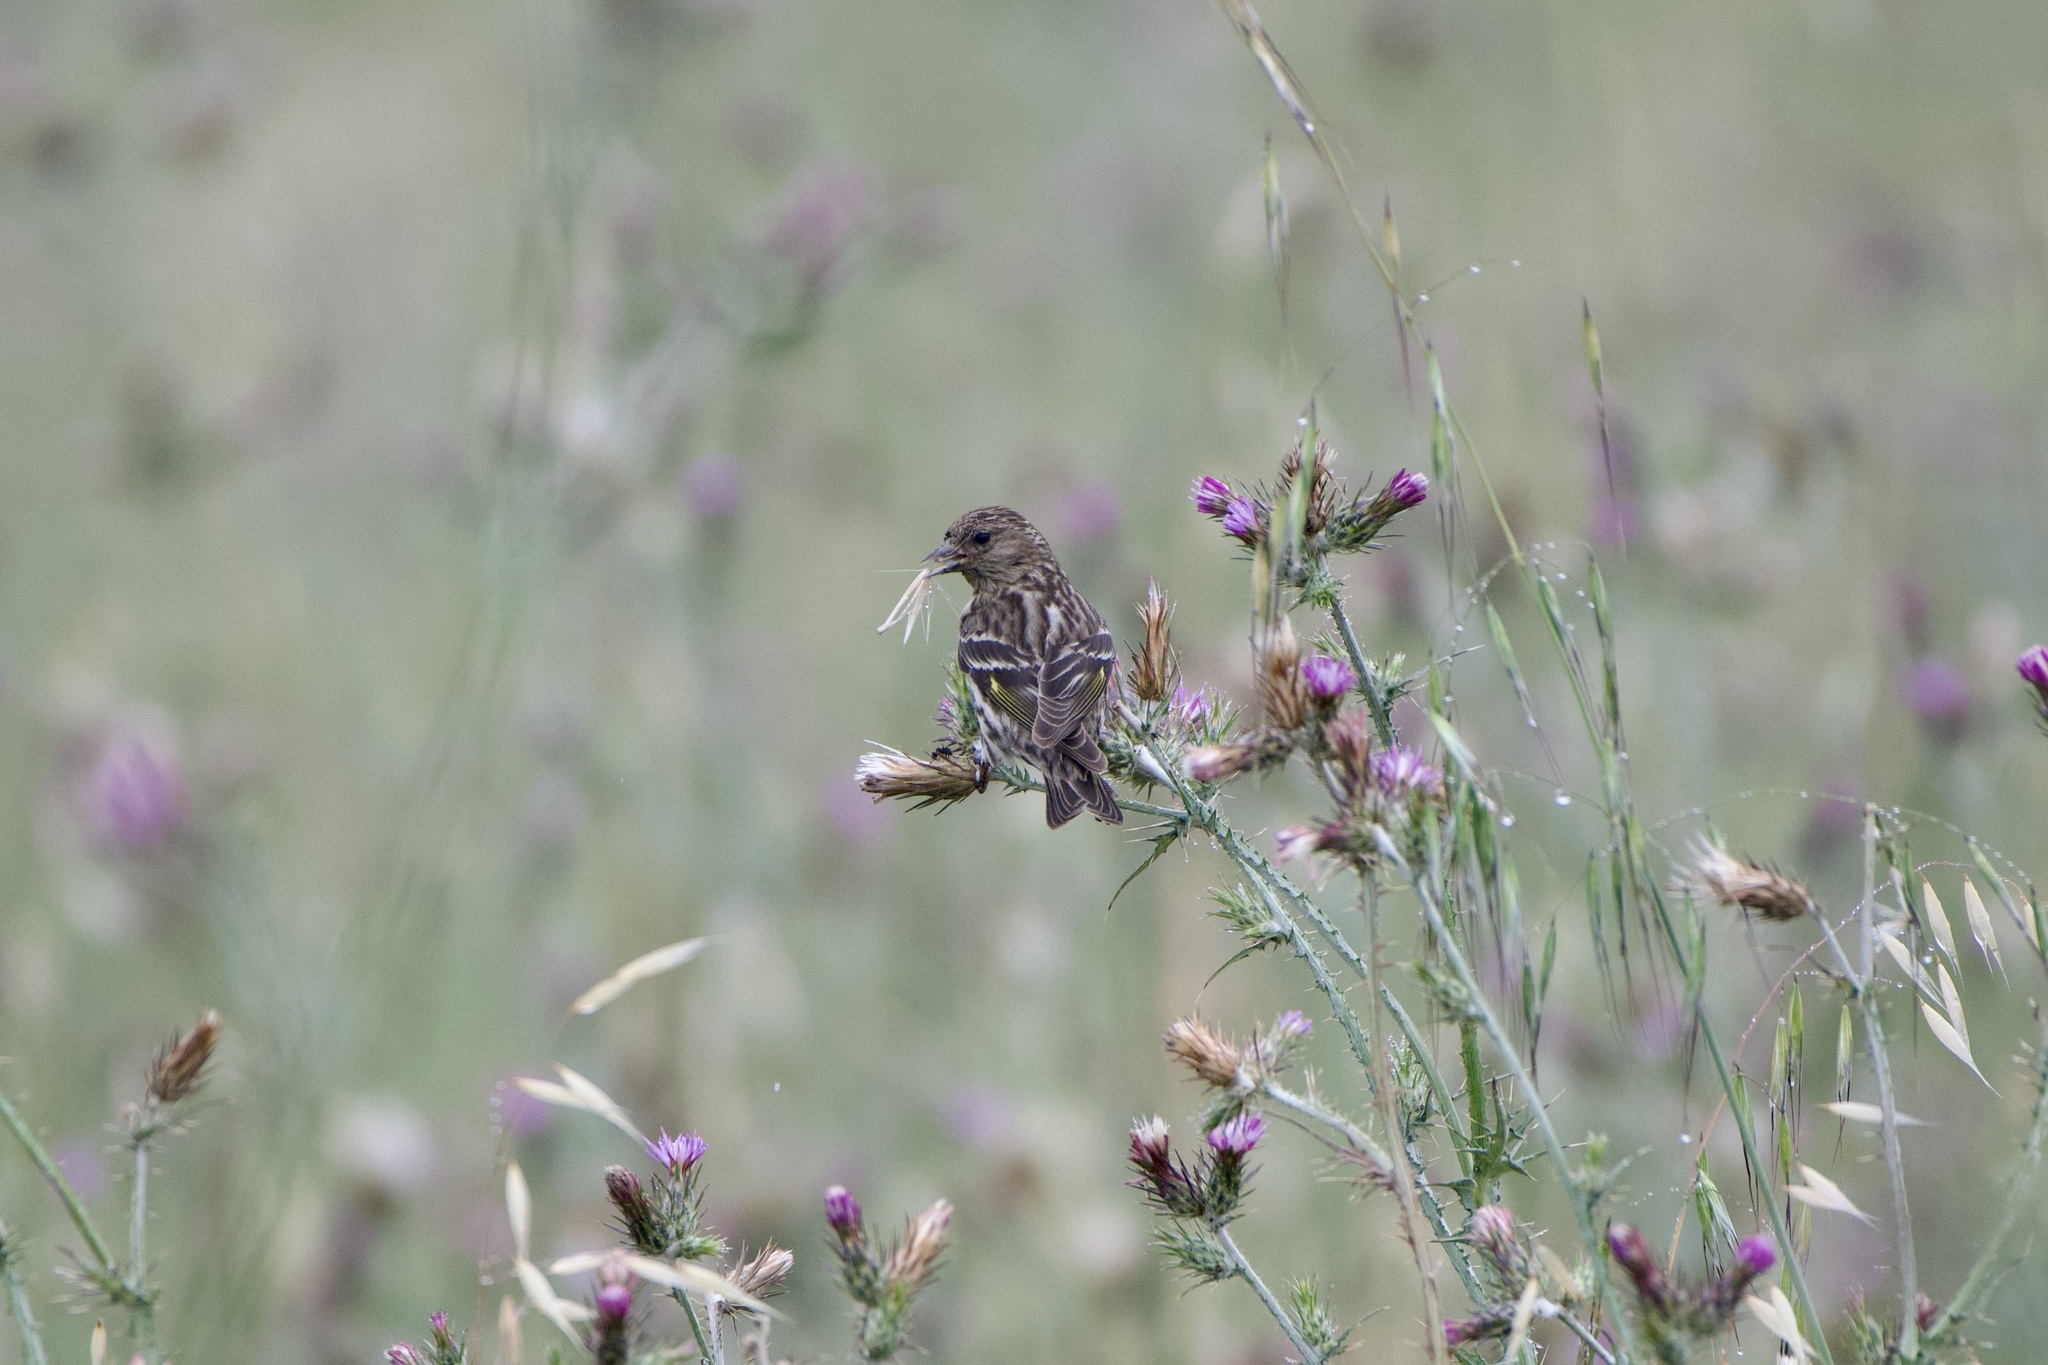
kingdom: Animalia
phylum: Chordata
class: Aves
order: Passeriformes
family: Fringillidae
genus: Spinus
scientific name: Spinus pinus
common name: Pine siskin
